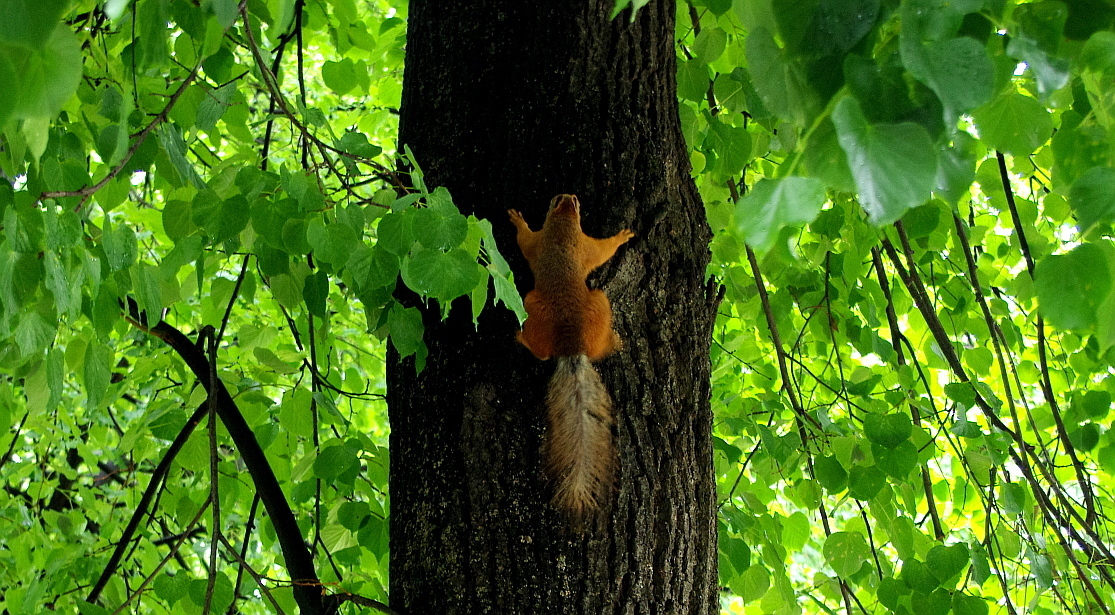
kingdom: Animalia
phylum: Chordata
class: Mammalia
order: Rodentia
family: Sciuridae
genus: Sciurus
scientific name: Sciurus vulgaris
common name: Eurasian red squirrel
